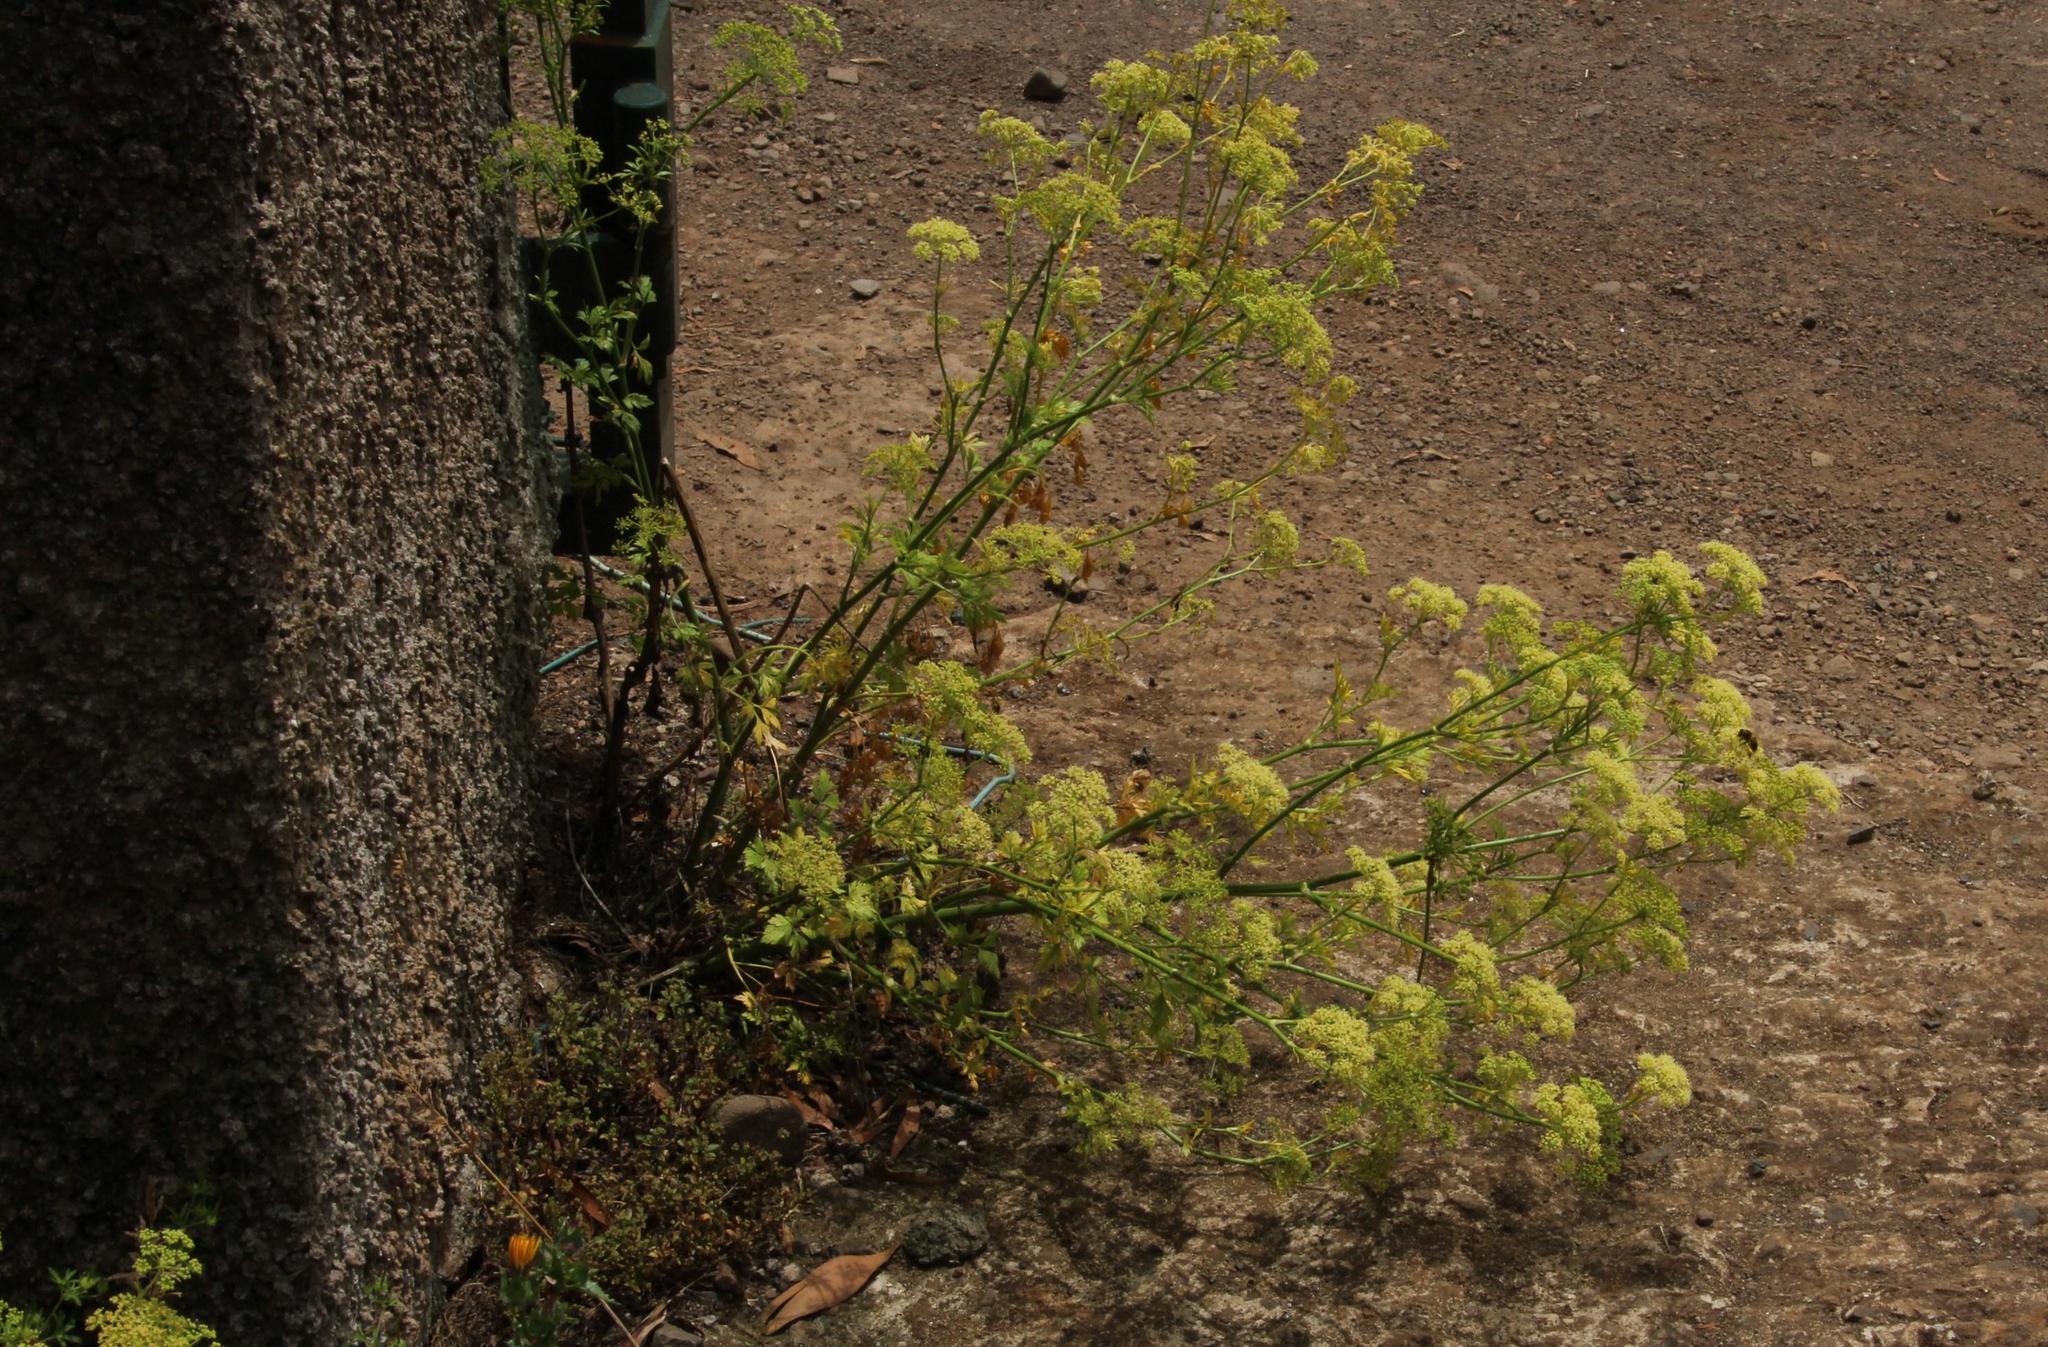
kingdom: Plantae
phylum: Tracheophyta
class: Magnoliopsida
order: Apiales
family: Apiaceae
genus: Petroselinum
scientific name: Petroselinum crispum
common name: Parsley
